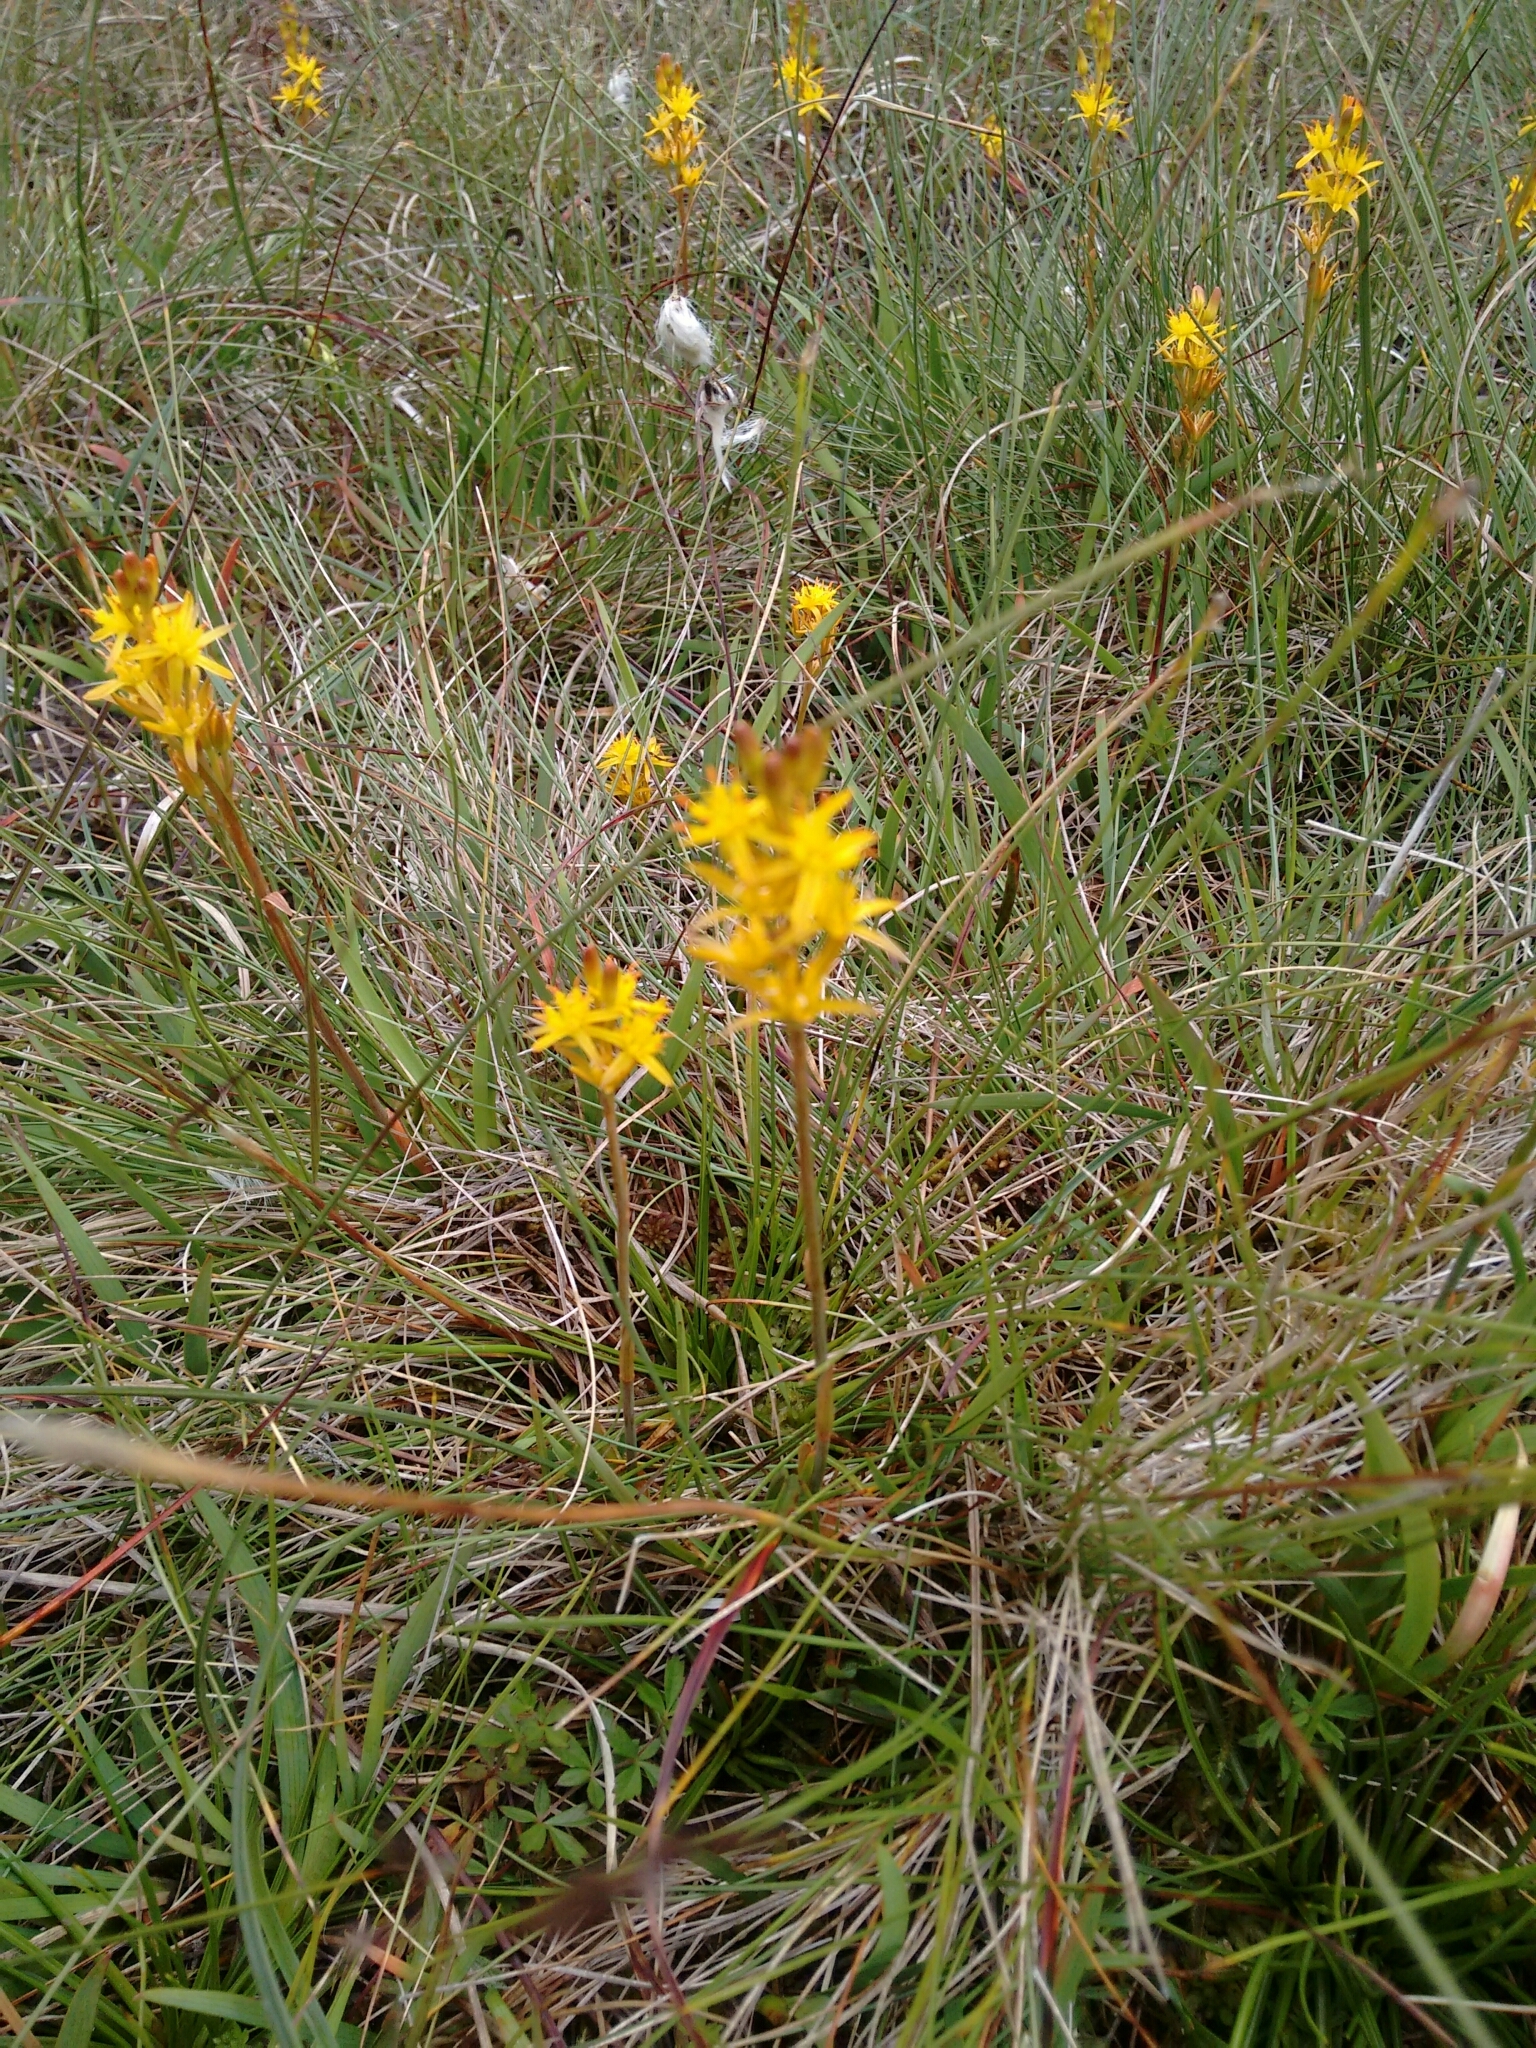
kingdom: Plantae
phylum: Tracheophyta
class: Liliopsida
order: Dioscoreales
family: Nartheciaceae
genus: Narthecium
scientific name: Narthecium ossifragum
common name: Bog asphodel
